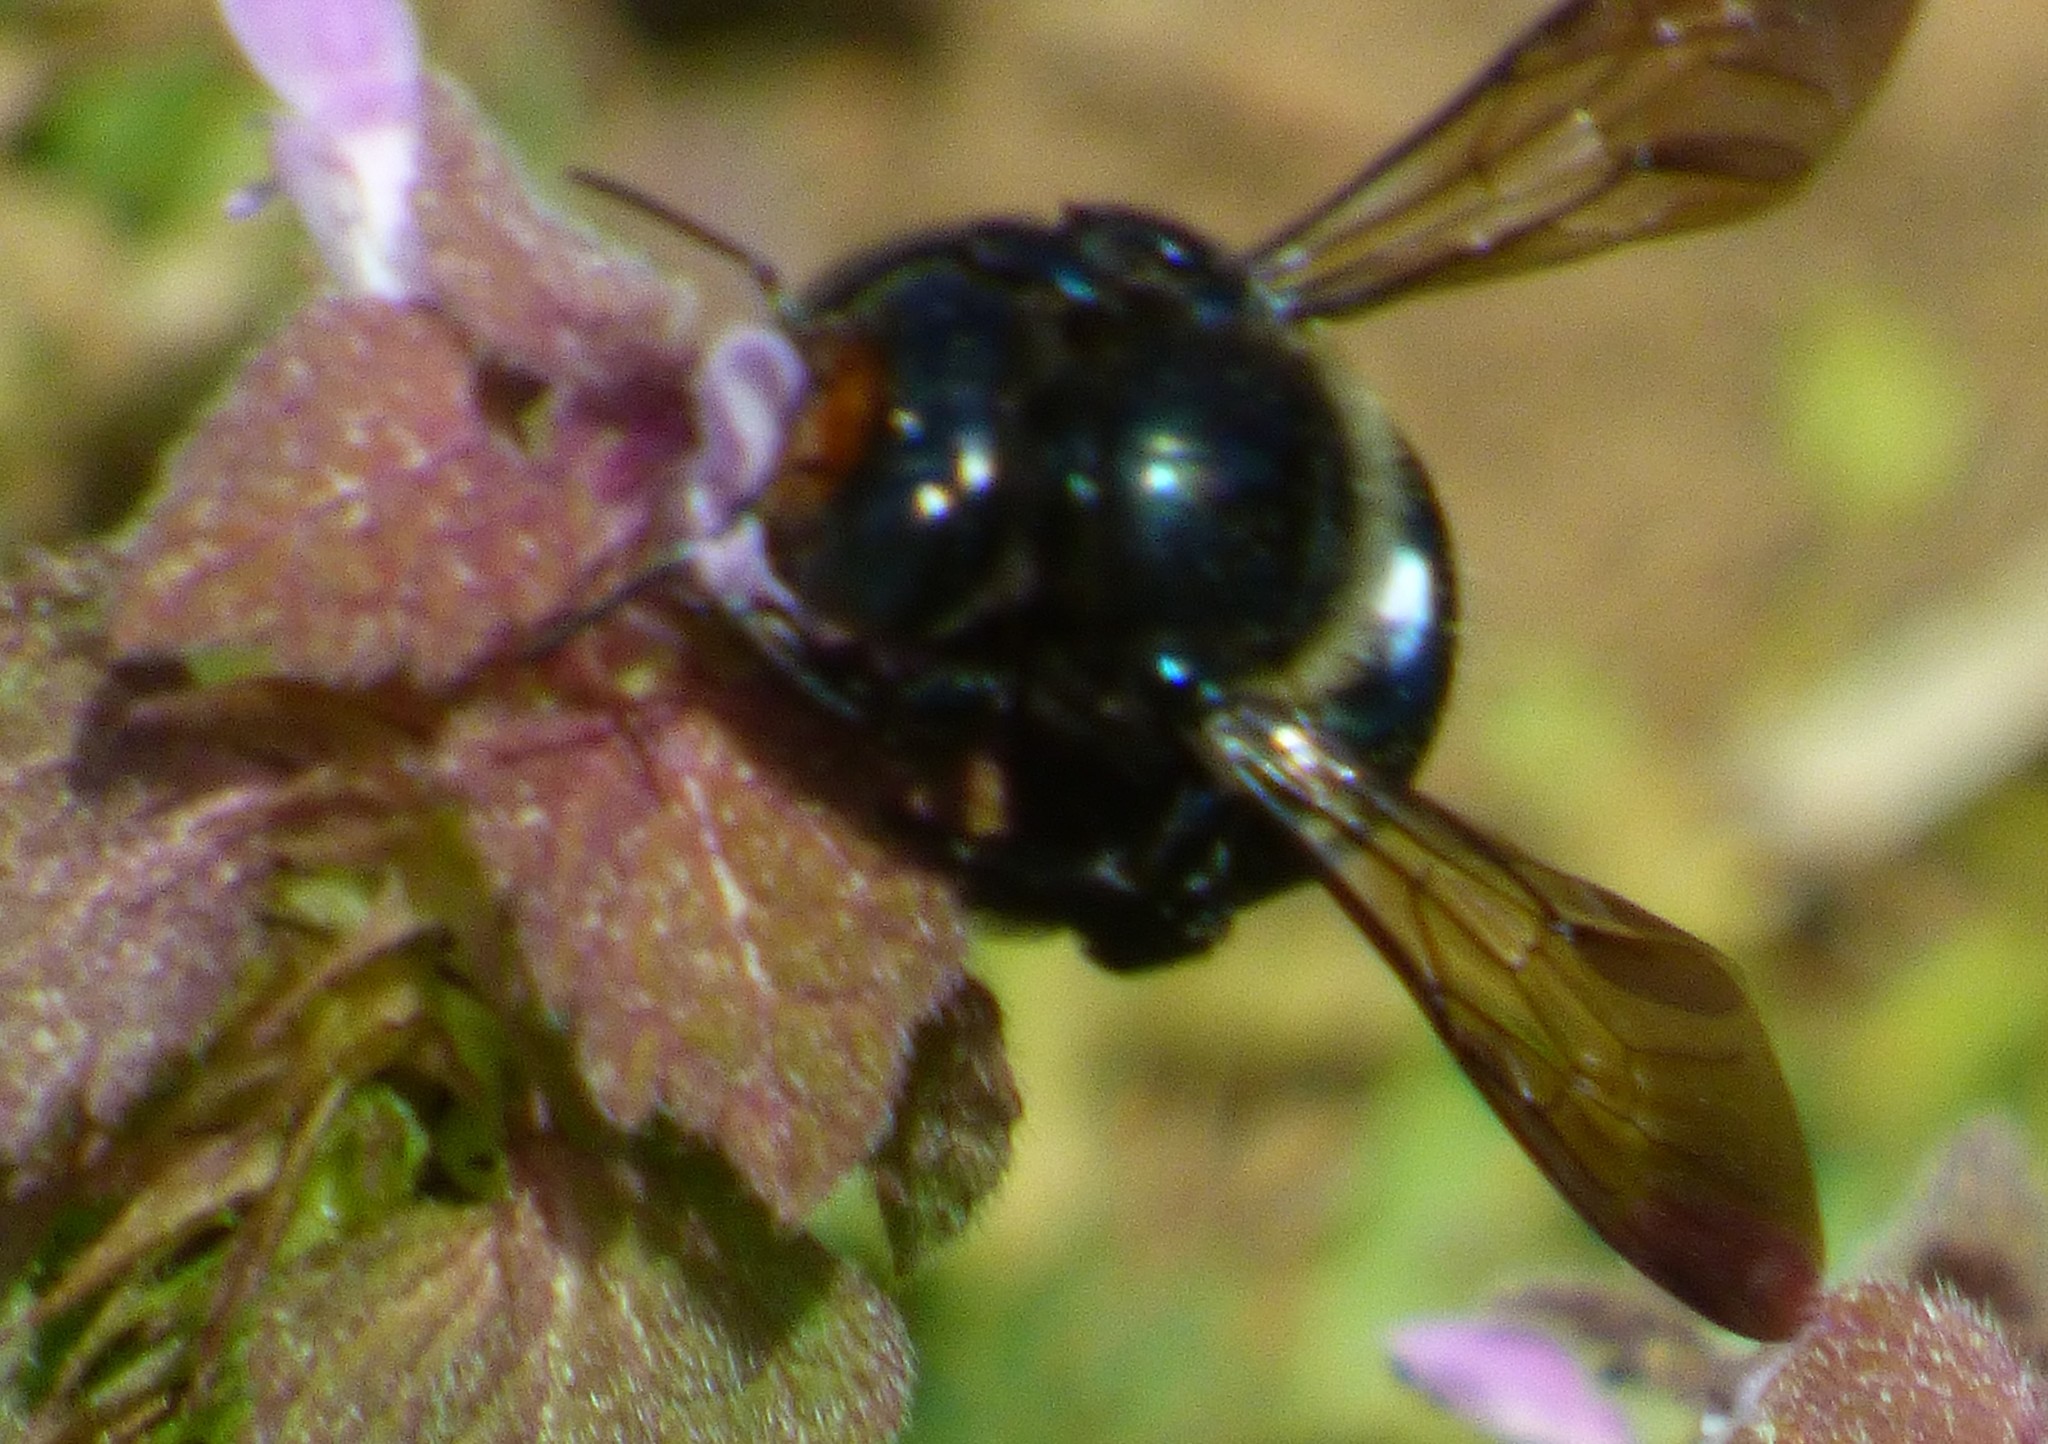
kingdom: Animalia
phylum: Arthropoda
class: Insecta
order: Hymenoptera
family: Apidae
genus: Xylocopa
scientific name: Xylocopa micans
